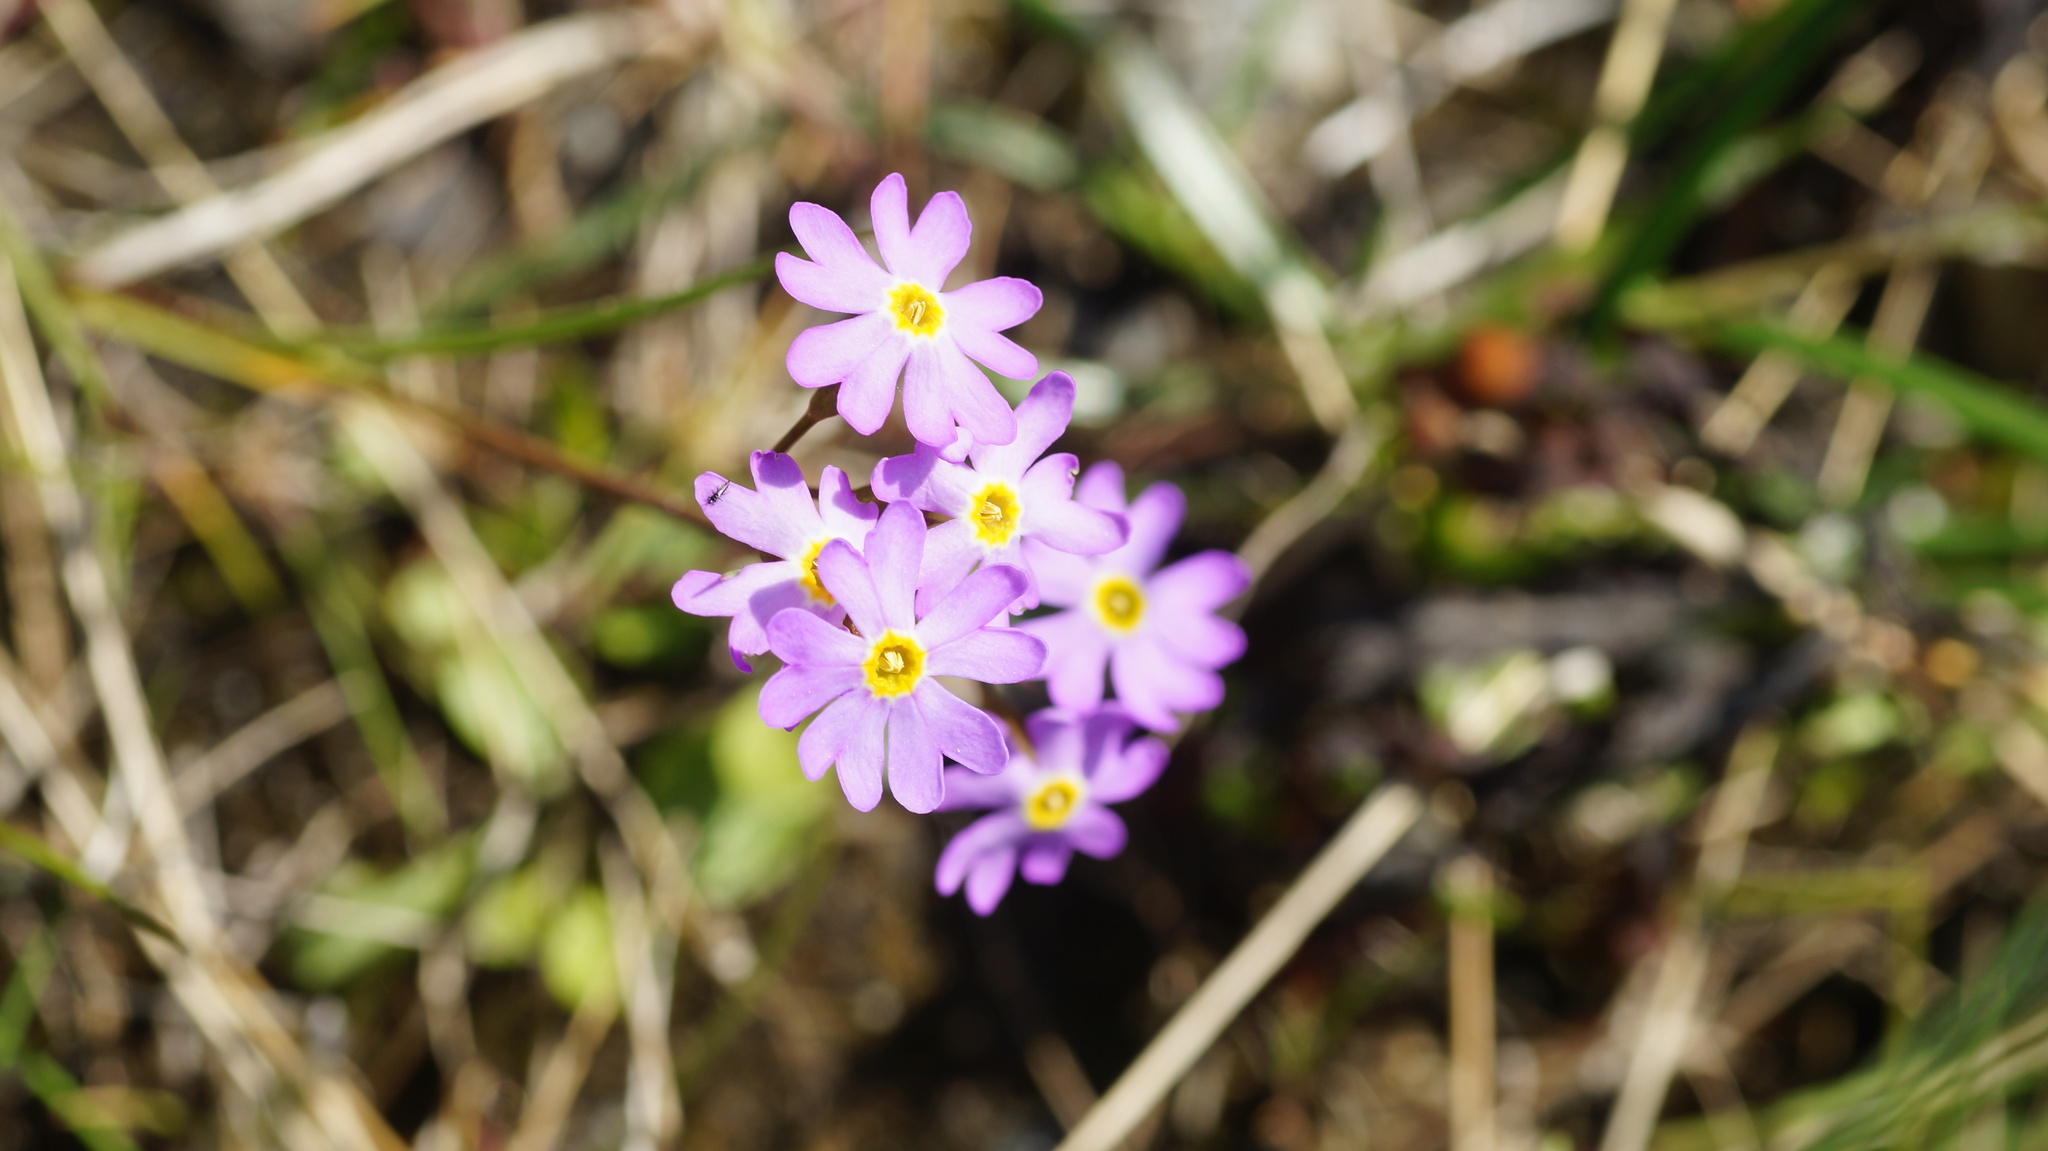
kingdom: Plantae
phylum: Tracheophyta
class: Magnoliopsida
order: Ericales
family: Primulaceae
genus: Primula
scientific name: Primula nutans
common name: Siberian primrose
